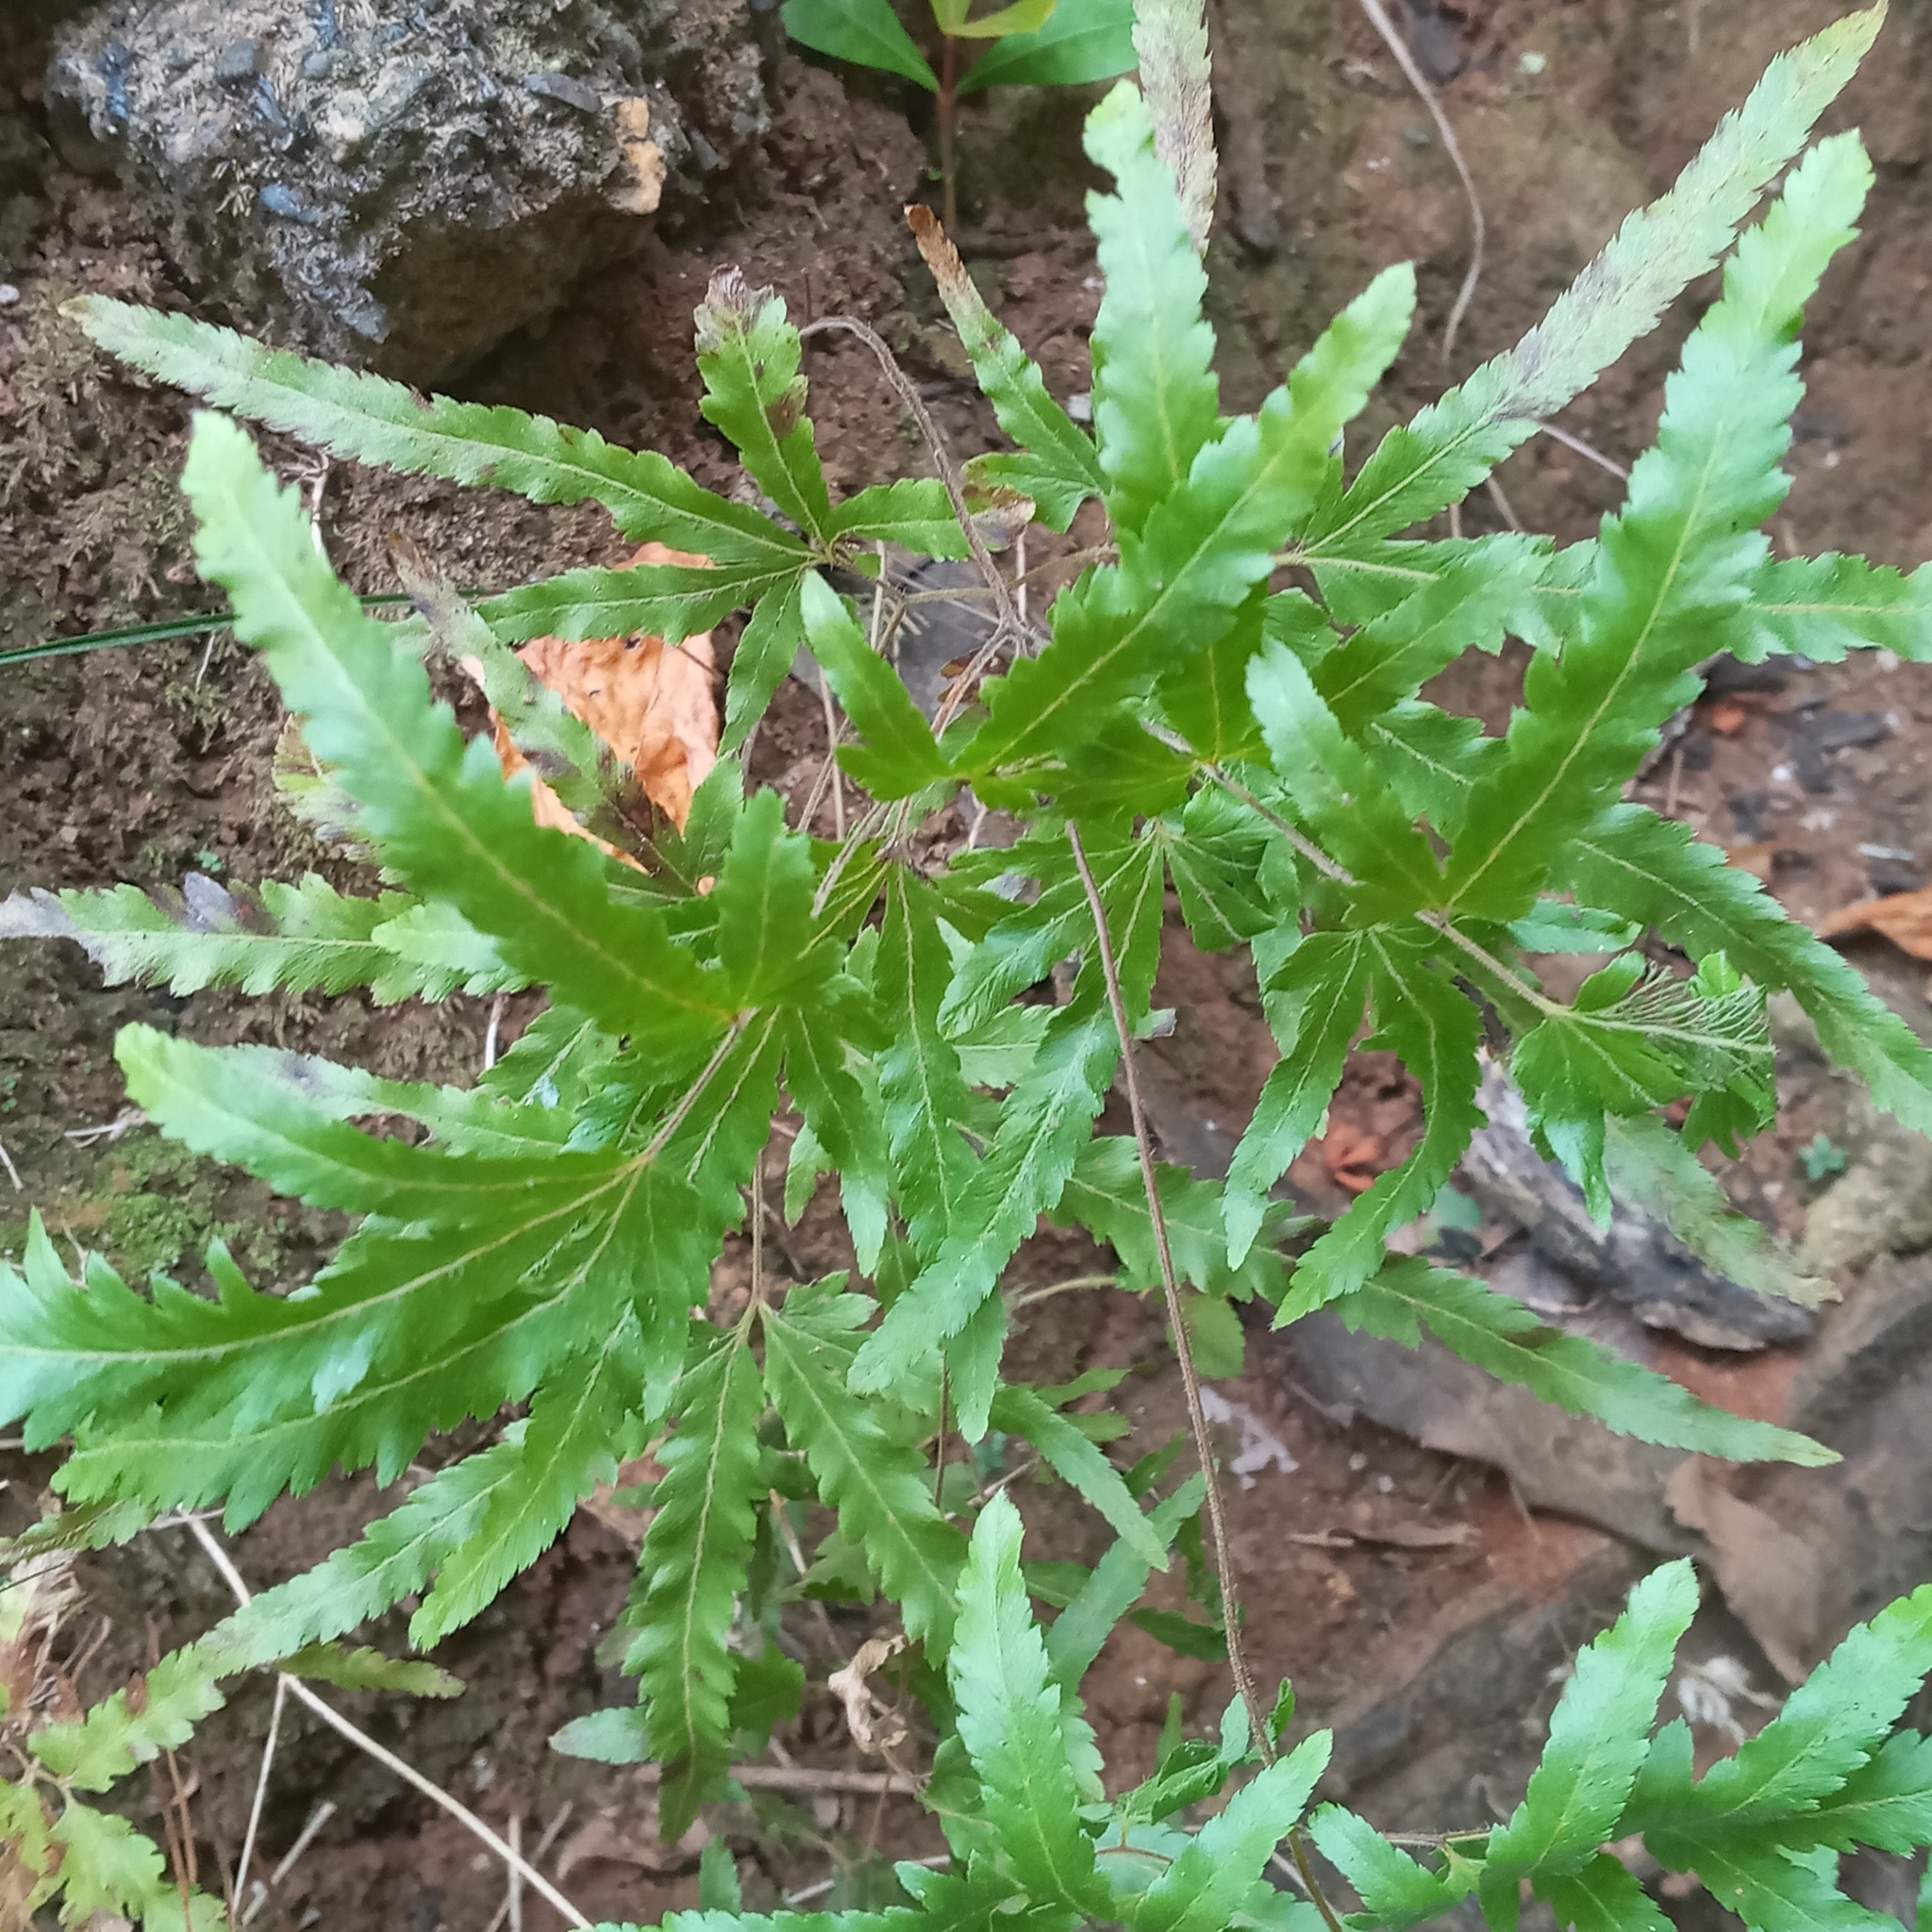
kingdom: Plantae
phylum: Tracheophyta
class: Polypodiopsida
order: Schizaeales
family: Lygodiaceae
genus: Lygodium
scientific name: Lygodium venustum
